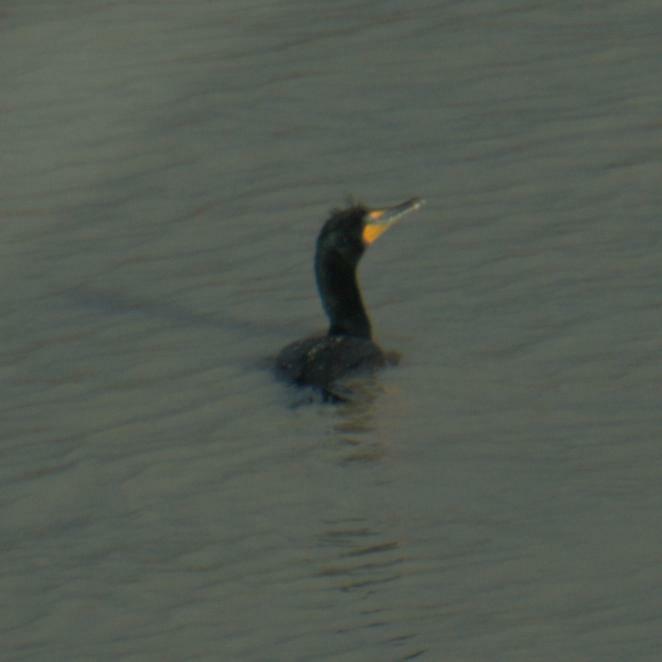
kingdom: Animalia
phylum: Chordata
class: Aves
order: Suliformes
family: Phalacrocoracidae
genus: Phalacrocorax
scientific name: Phalacrocorax auritus
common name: Double-crested cormorant
